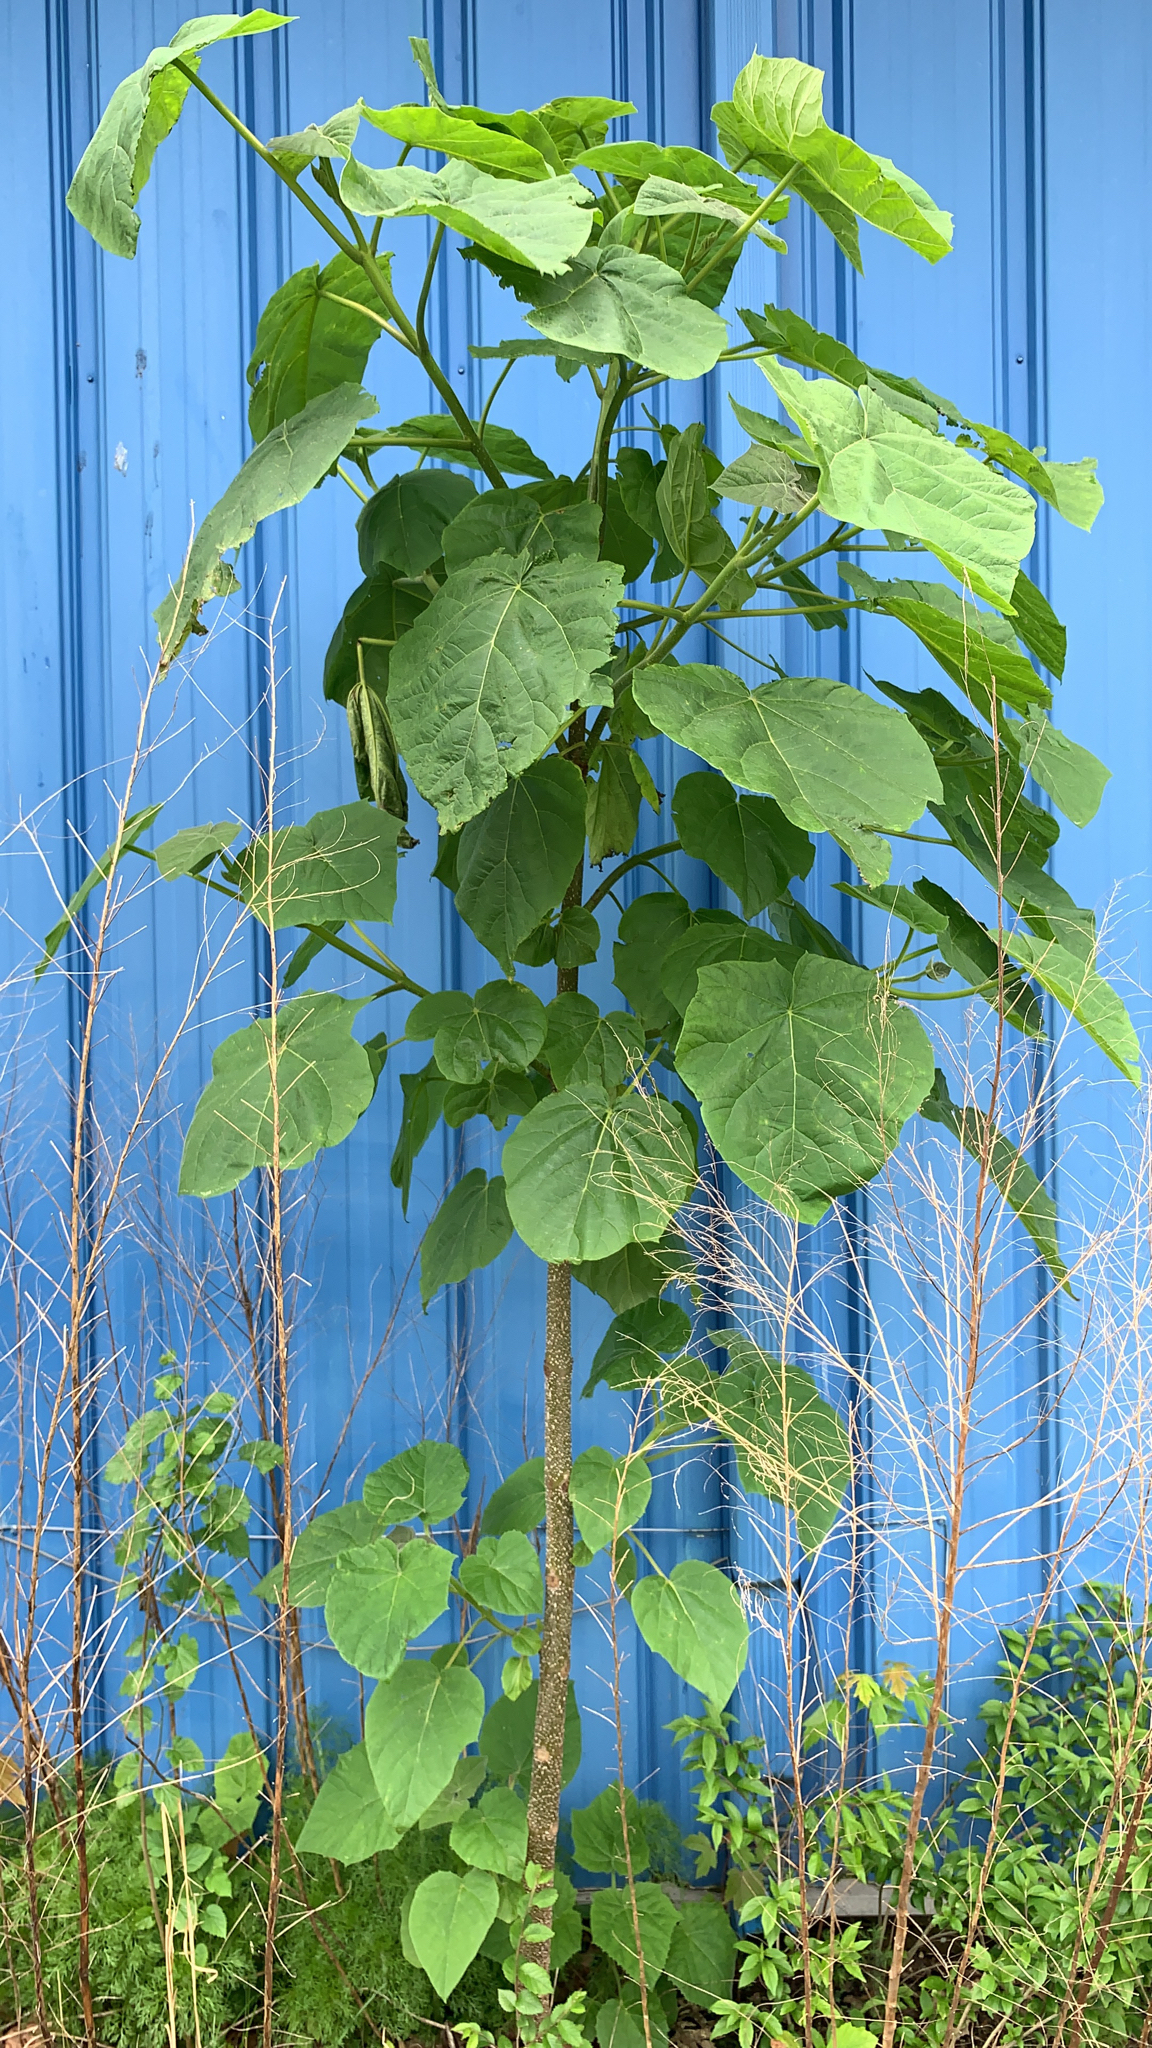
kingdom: Plantae
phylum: Tracheophyta
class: Magnoliopsida
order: Lamiales
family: Paulowniaceae
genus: Paulownia
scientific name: Paulownia tomentosa
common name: Foxglove-tree
